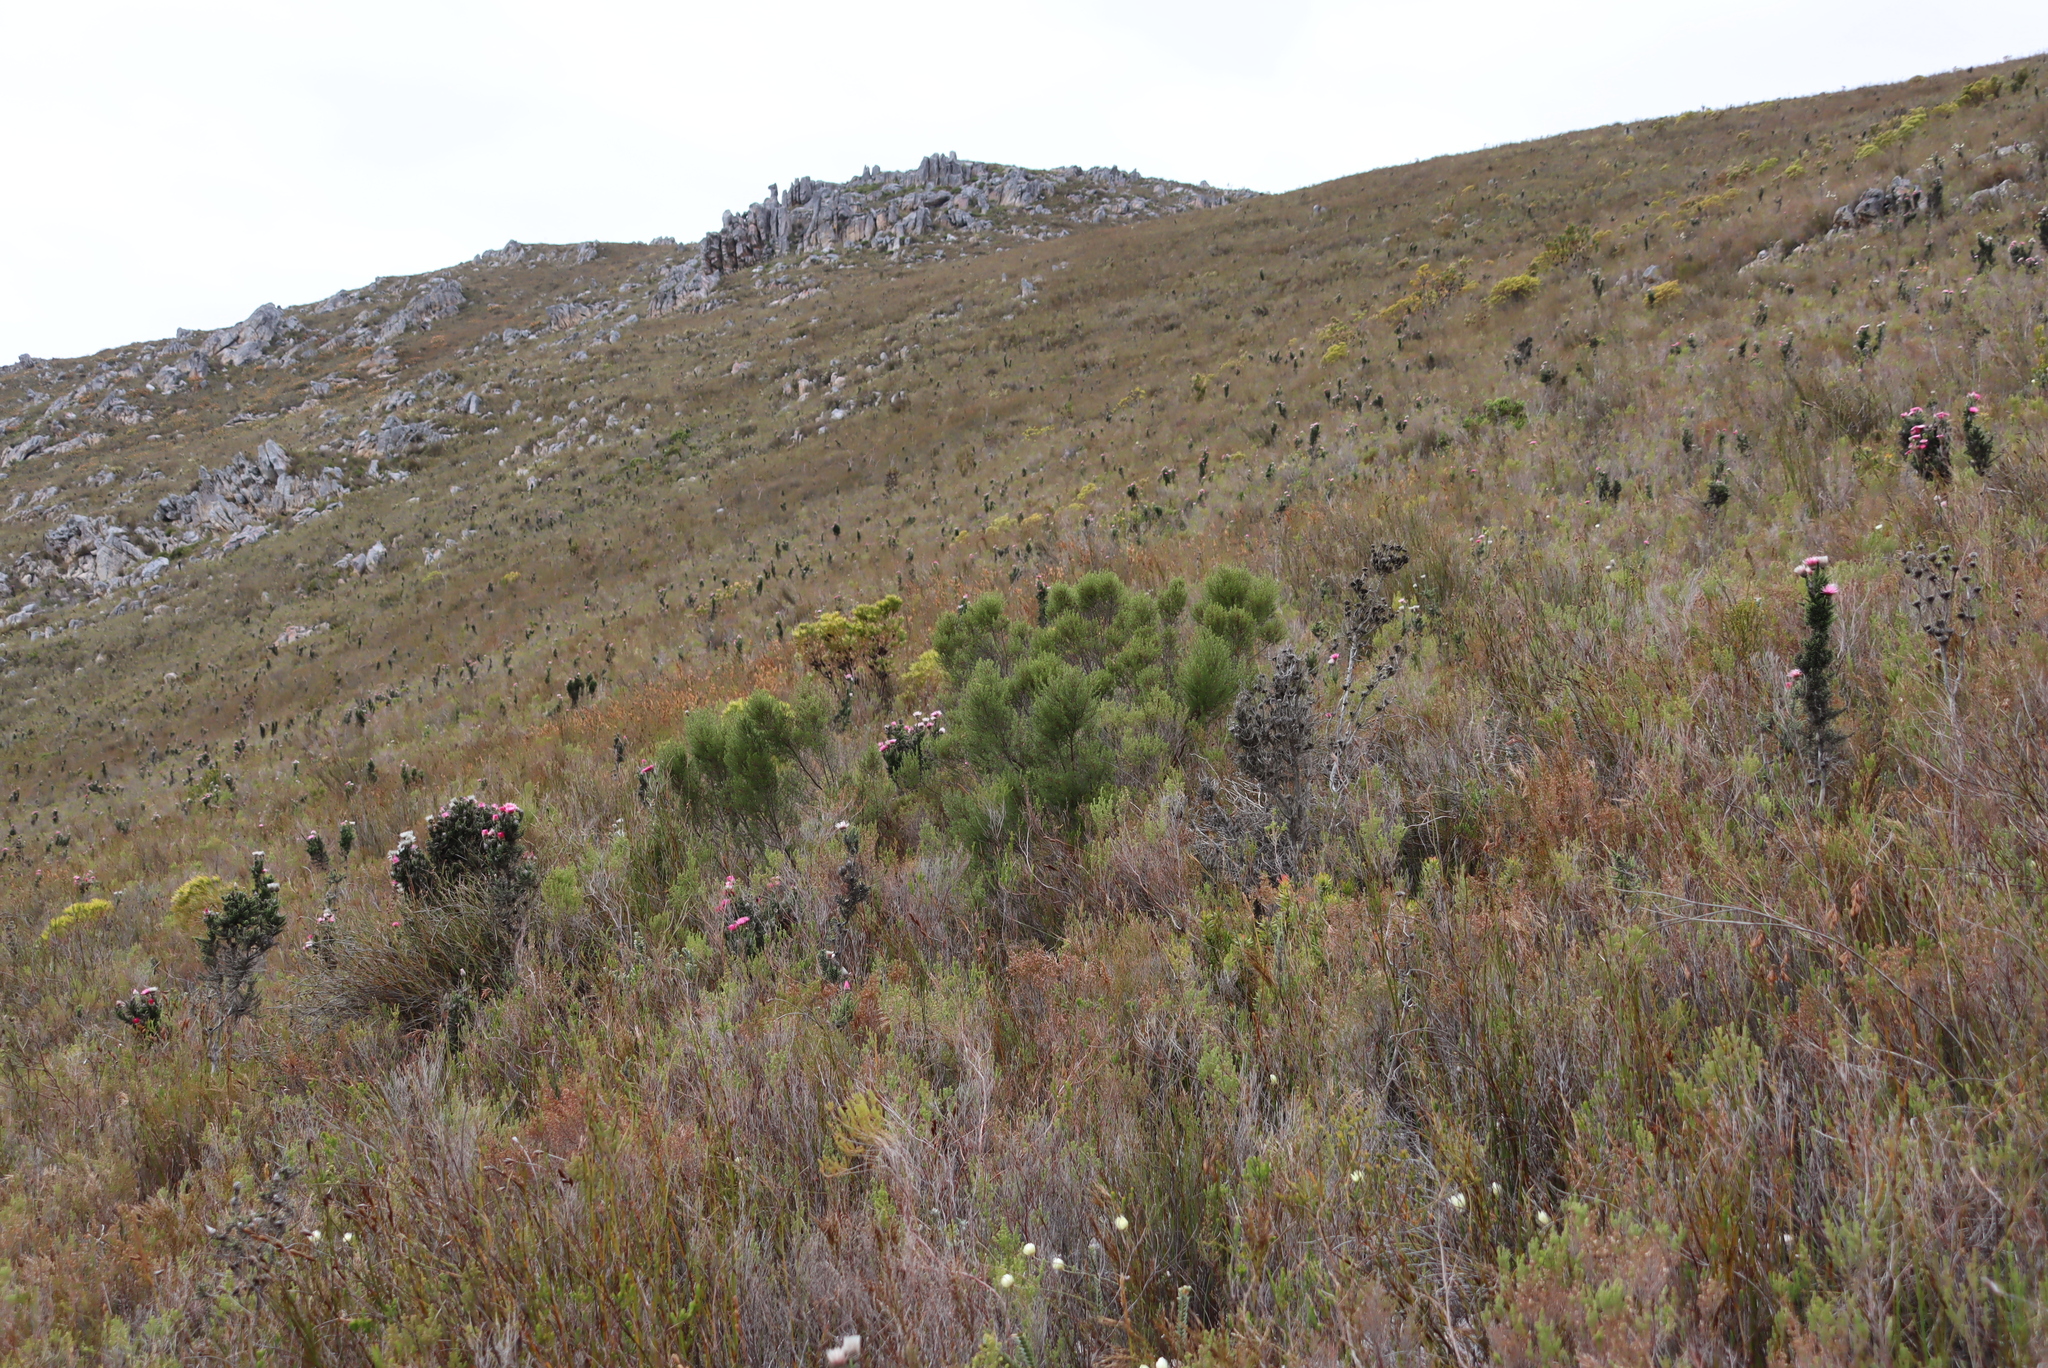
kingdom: Plantae
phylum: Tracheophyta
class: Magnoliopsida
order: Rosales
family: Rosaceae
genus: Cliffortia
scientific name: Cliffortia atrata
